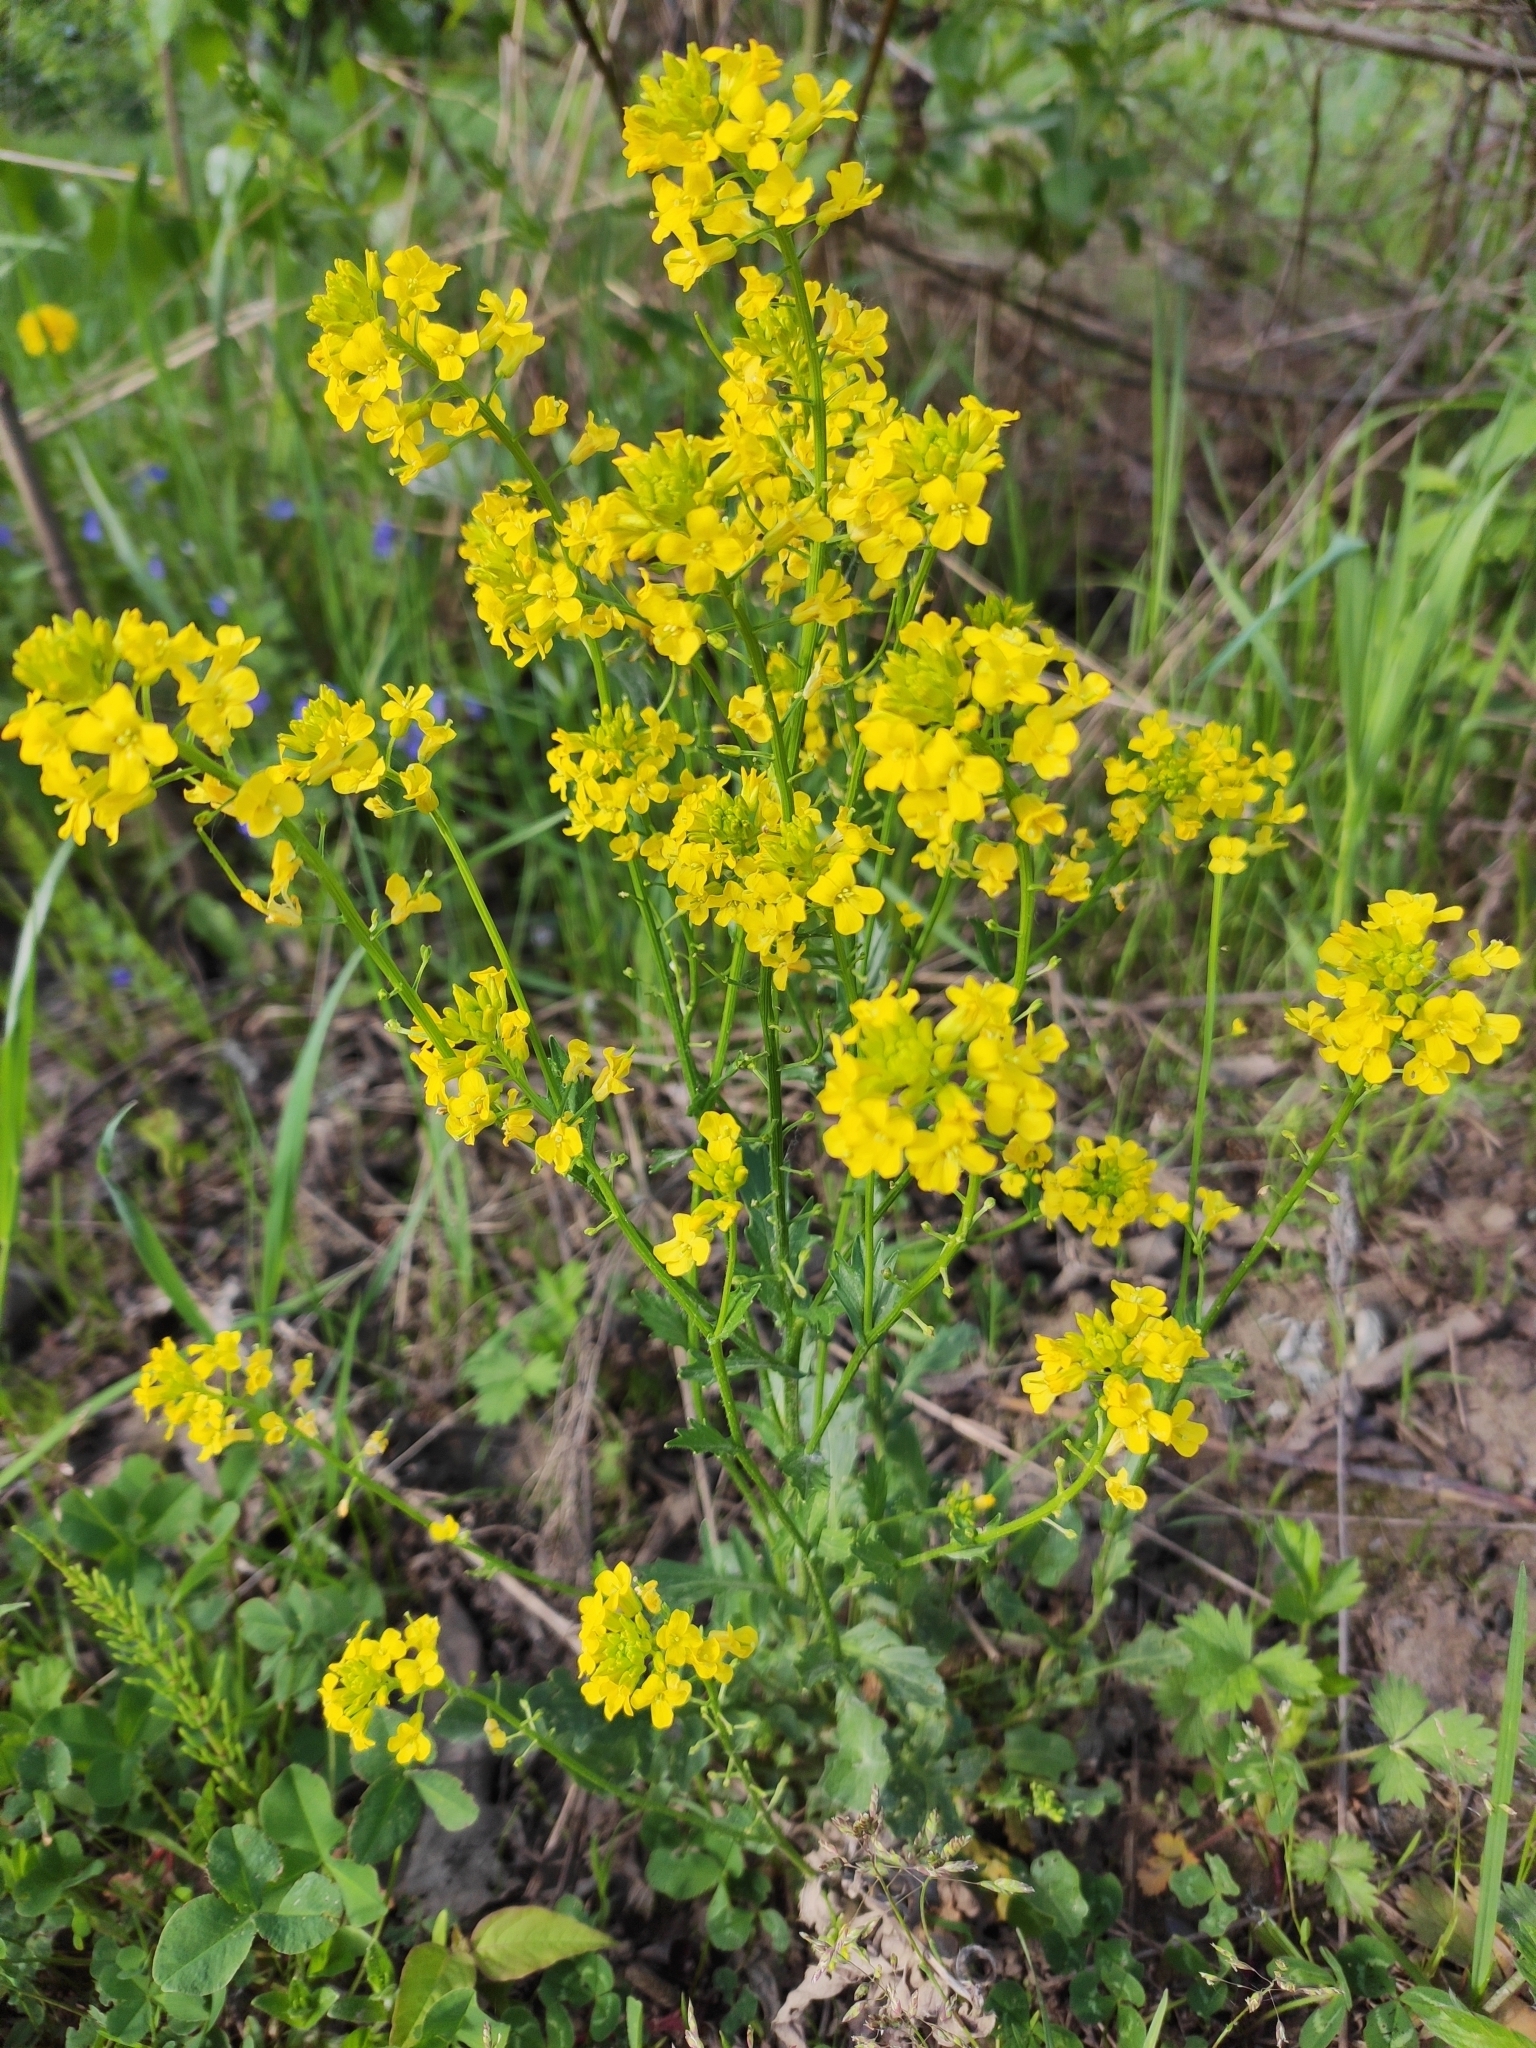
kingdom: Plantae
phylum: Tracheophyta
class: Magnoliopsida
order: Brassicales
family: Brassicaceae
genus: Barbarea
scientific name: Barbarea vulgaris
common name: Cressy-greens
